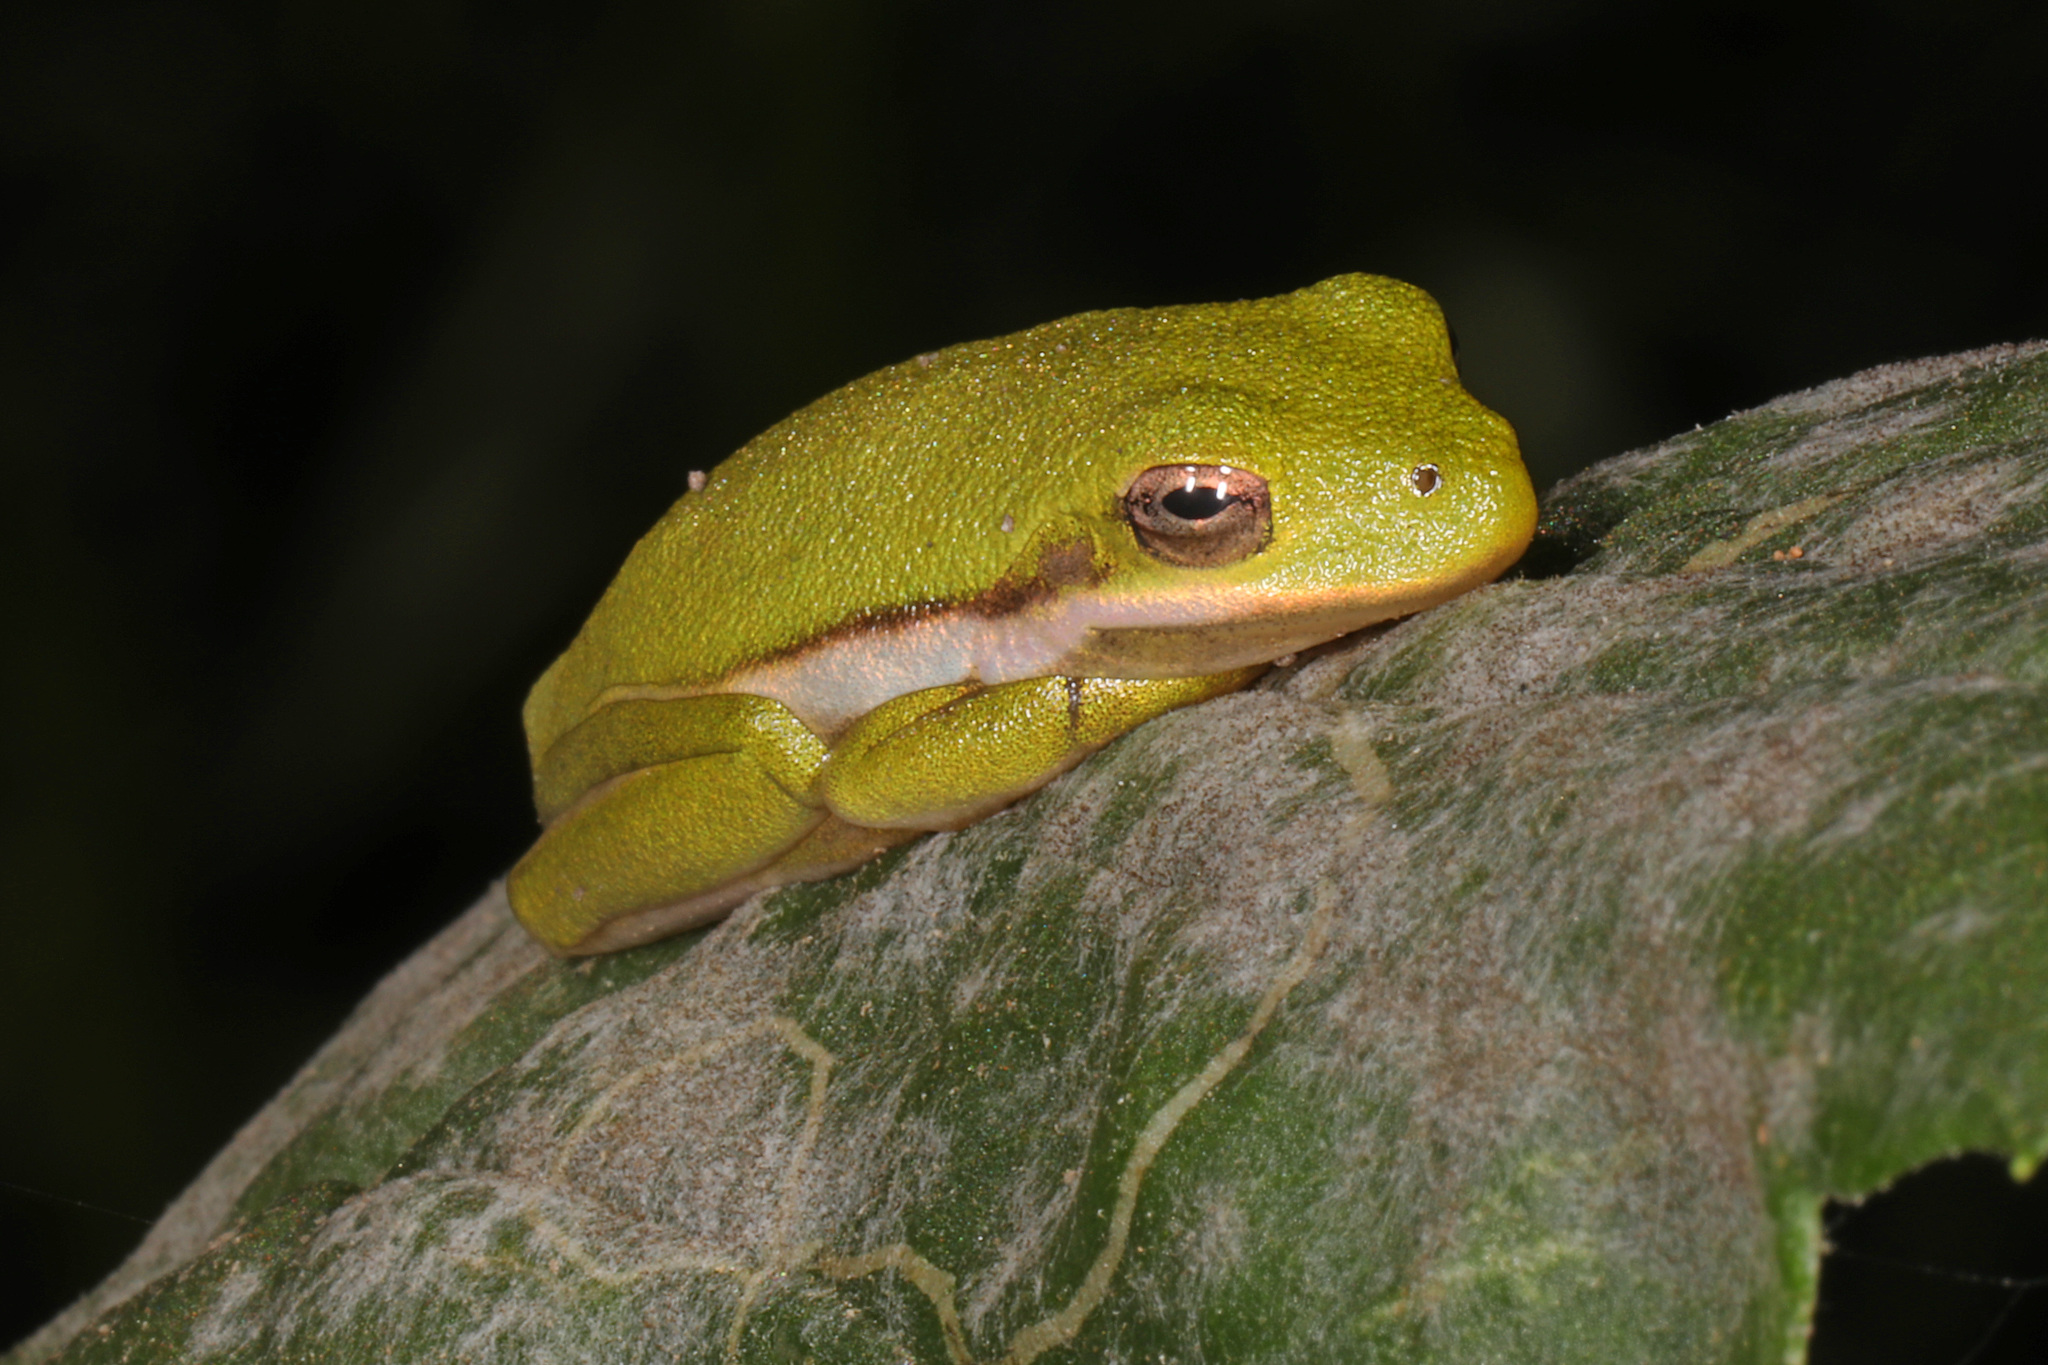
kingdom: Animalia
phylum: Chordata
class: Amphibia
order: Anura
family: Hylidae
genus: Dryophytes
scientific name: Dryophytes cinereus
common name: Green treefrog
